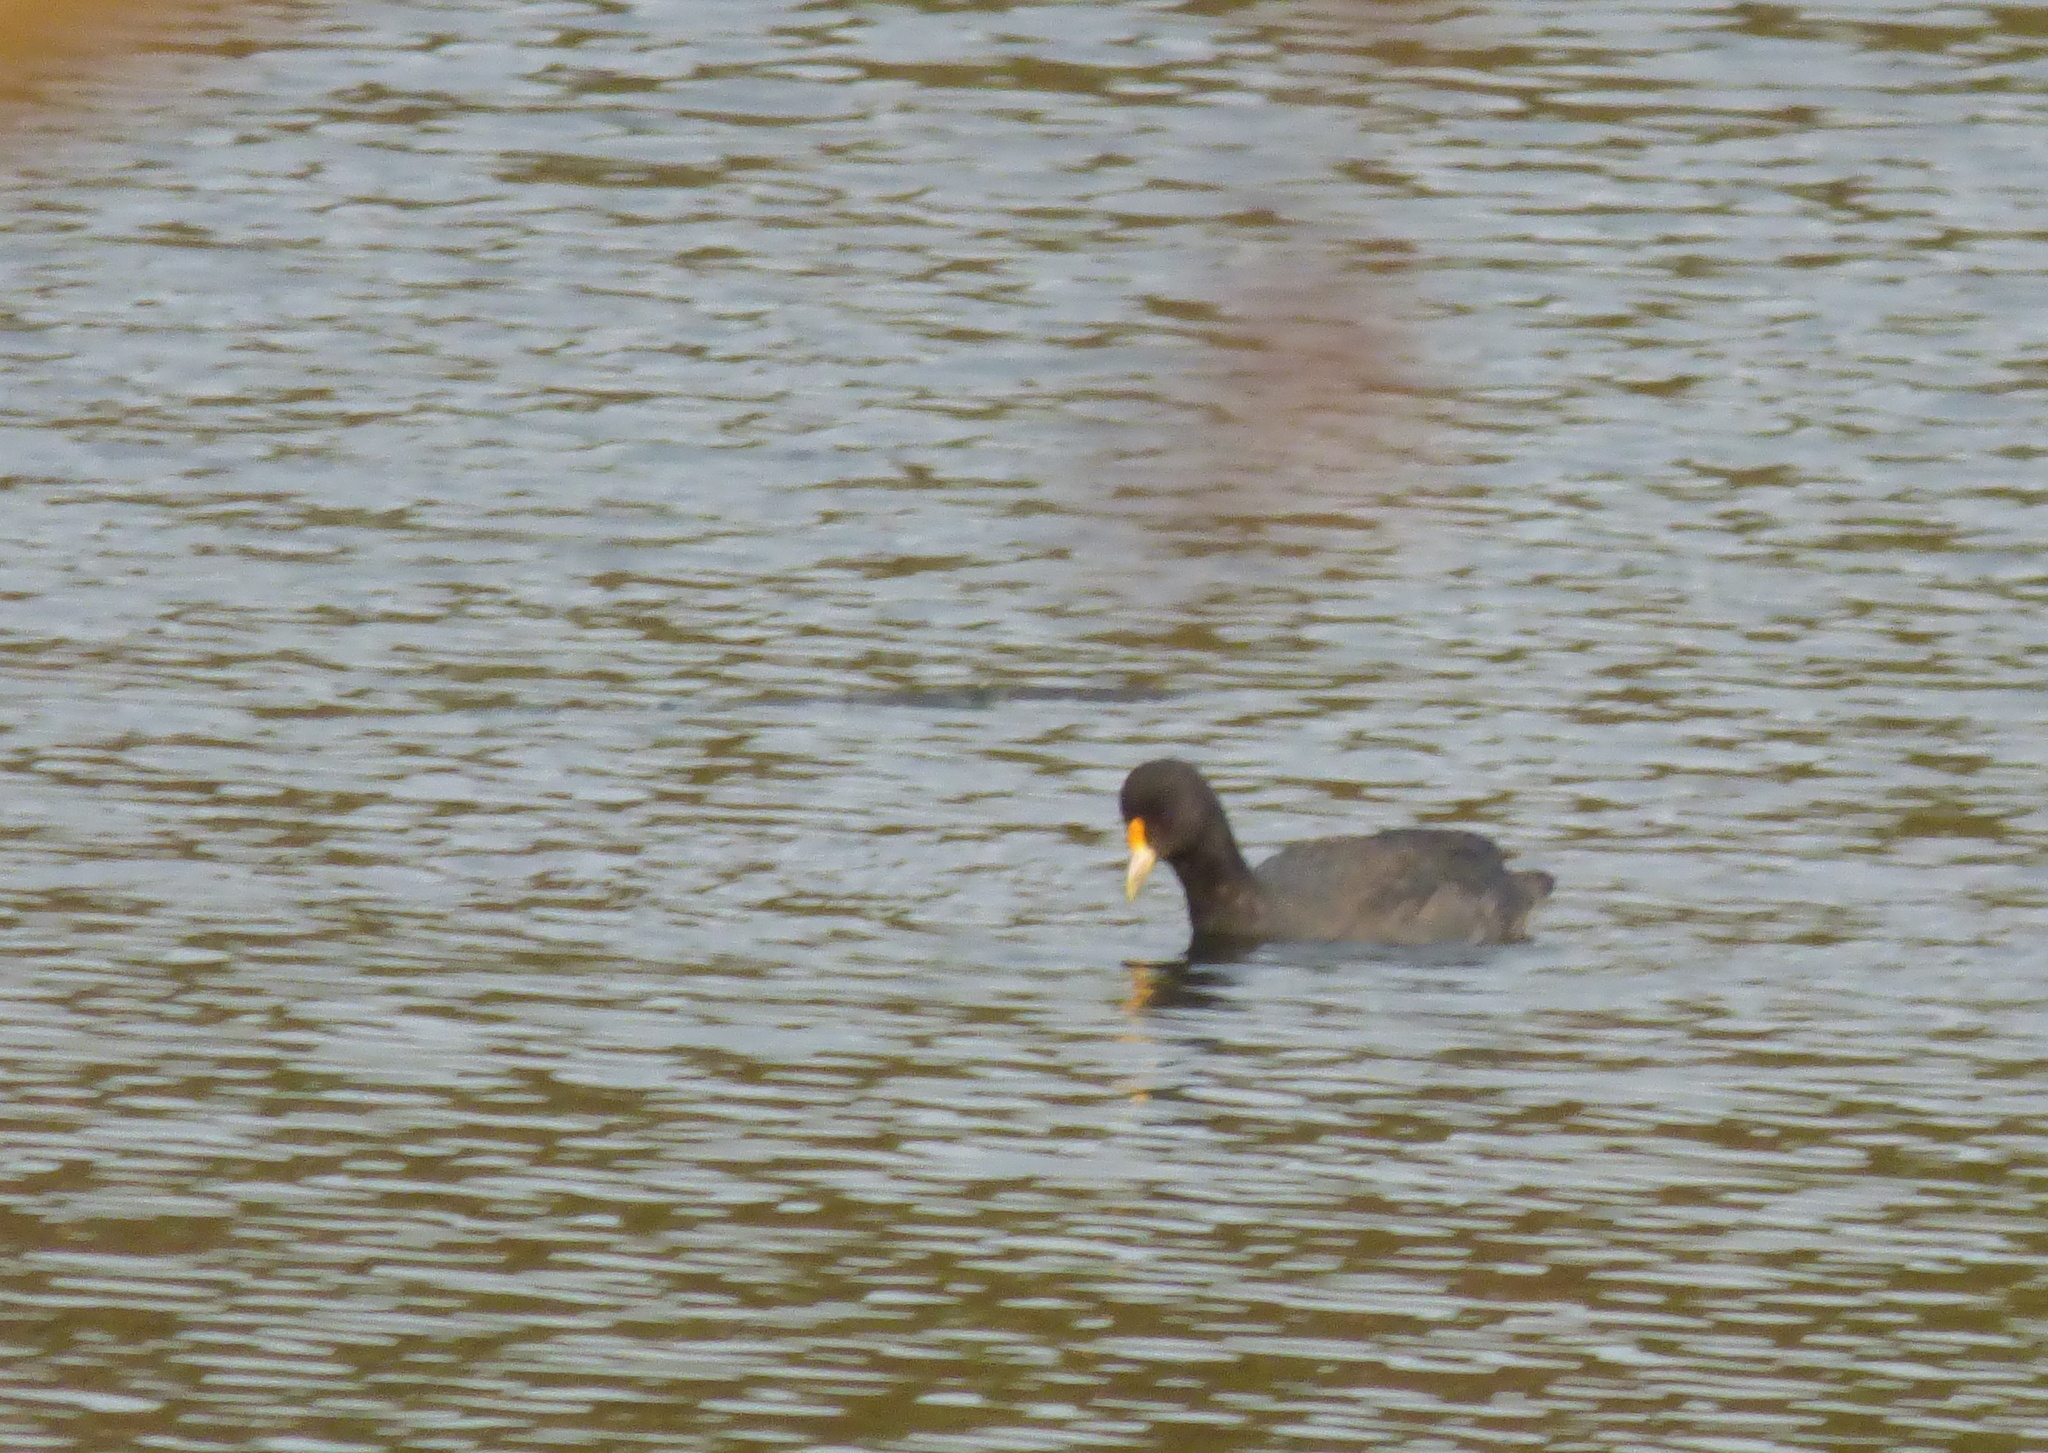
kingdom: Animalia
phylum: Chordata
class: Aves
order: Gruiformes
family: Rallidae
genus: Fulica
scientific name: Fulica leucoptera
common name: White-winged coot
